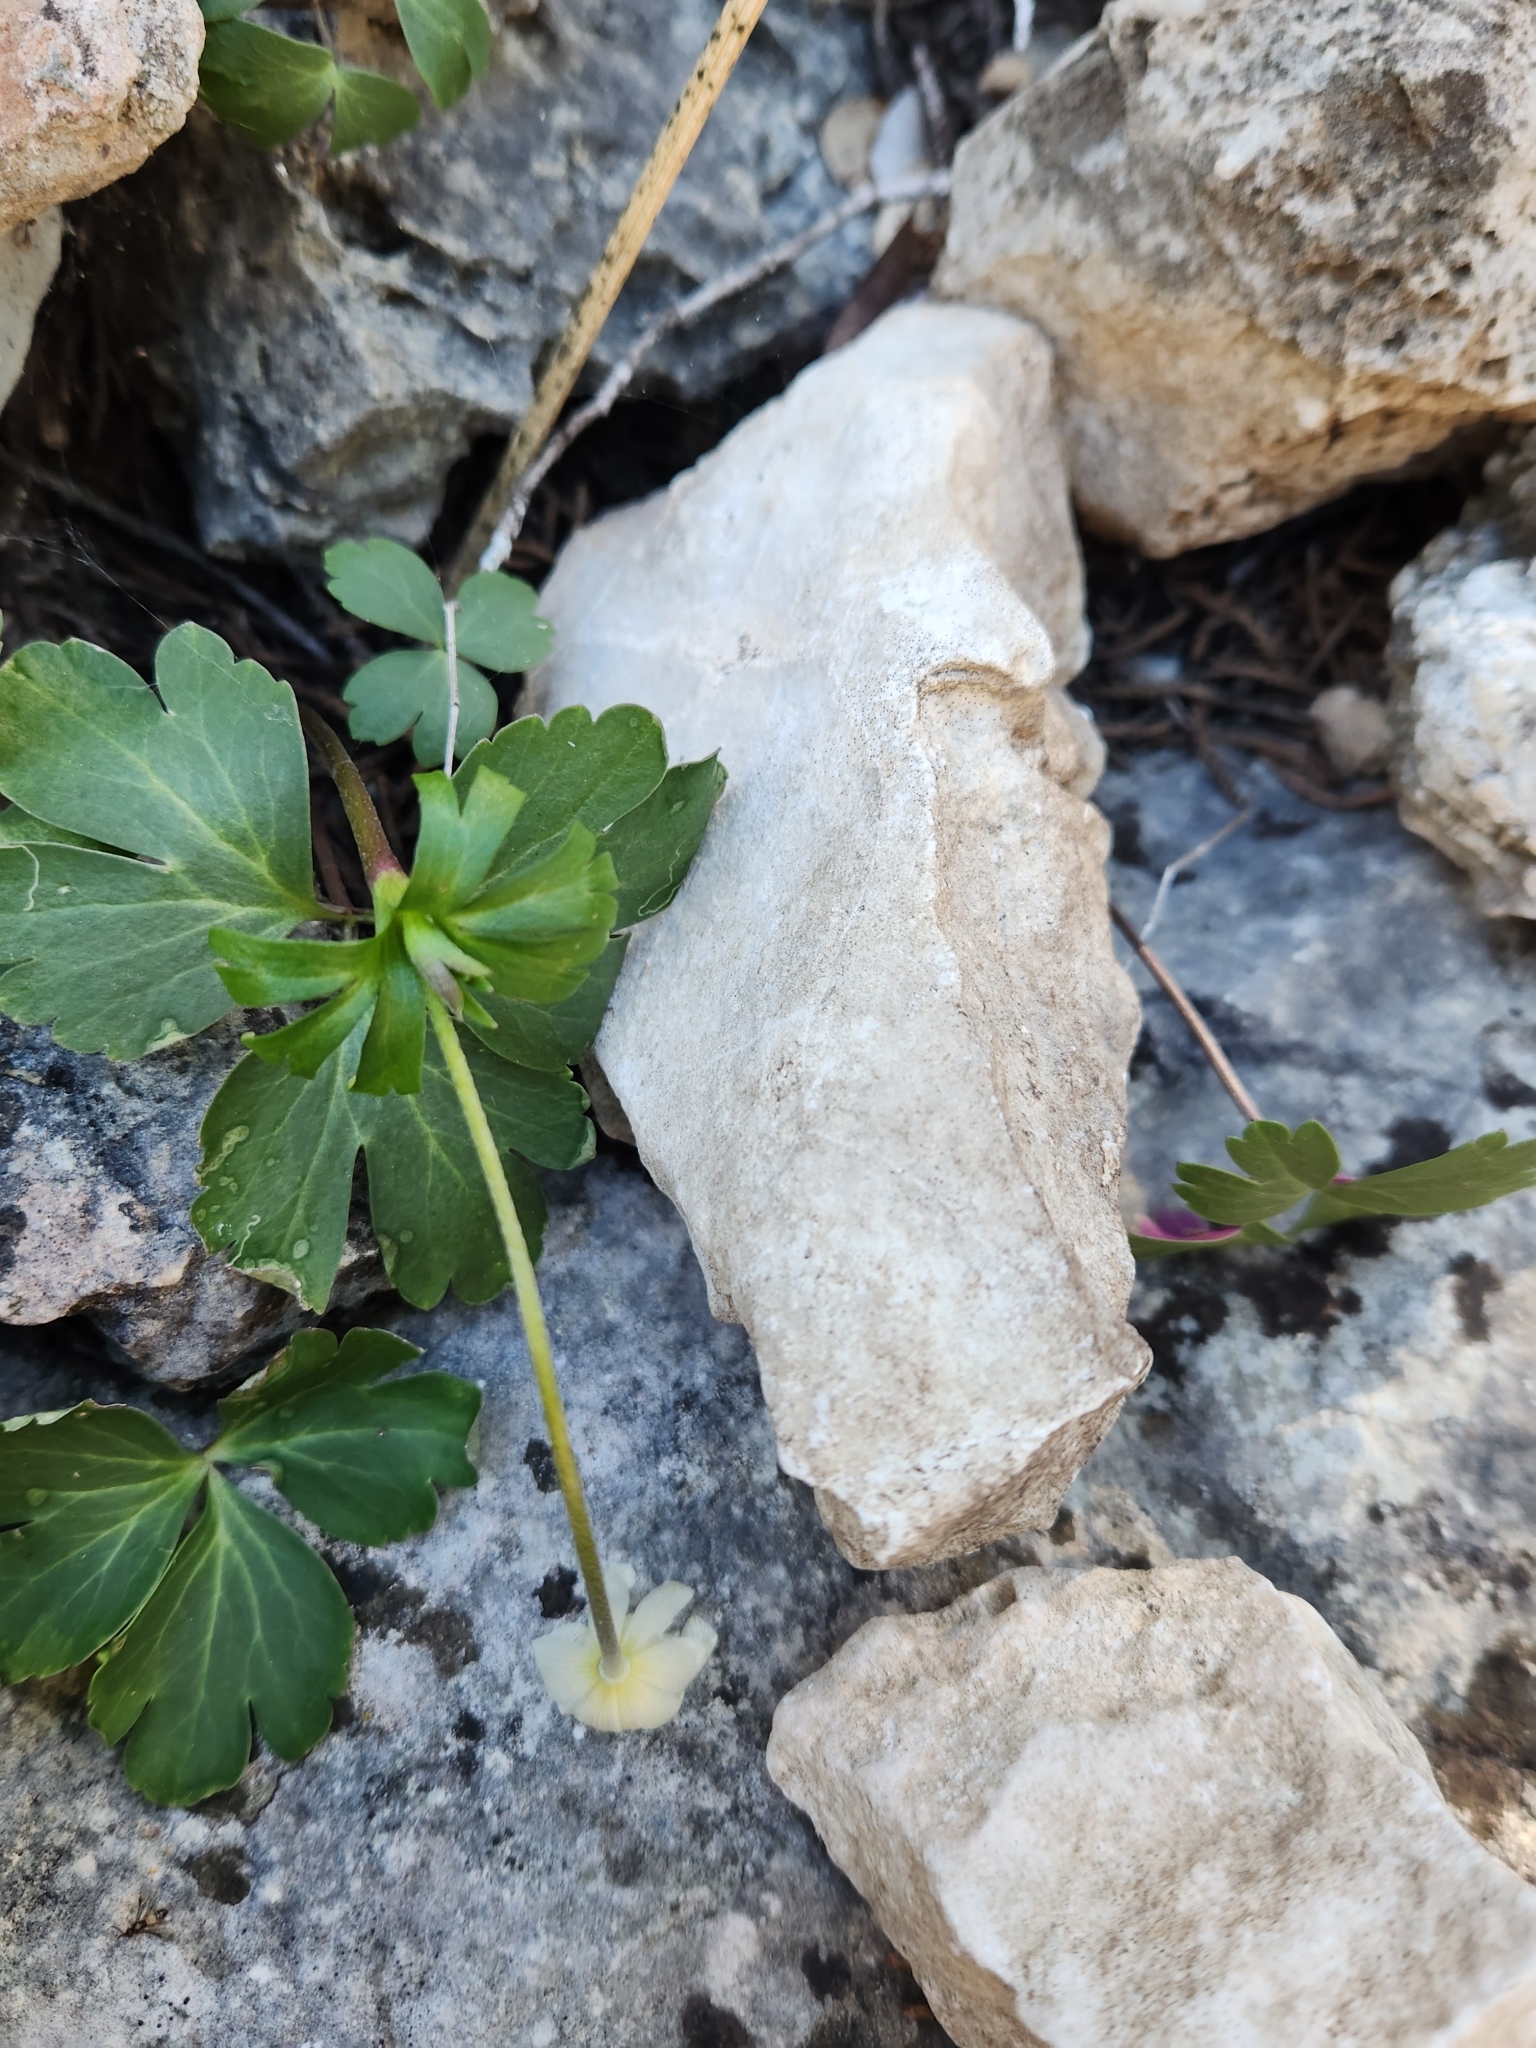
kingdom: Plantae
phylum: Tracheophyta
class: Magnoliopsida
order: Ranunculales
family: Ranunculaceae
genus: Anemone
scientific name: Anemone edwardsiana
